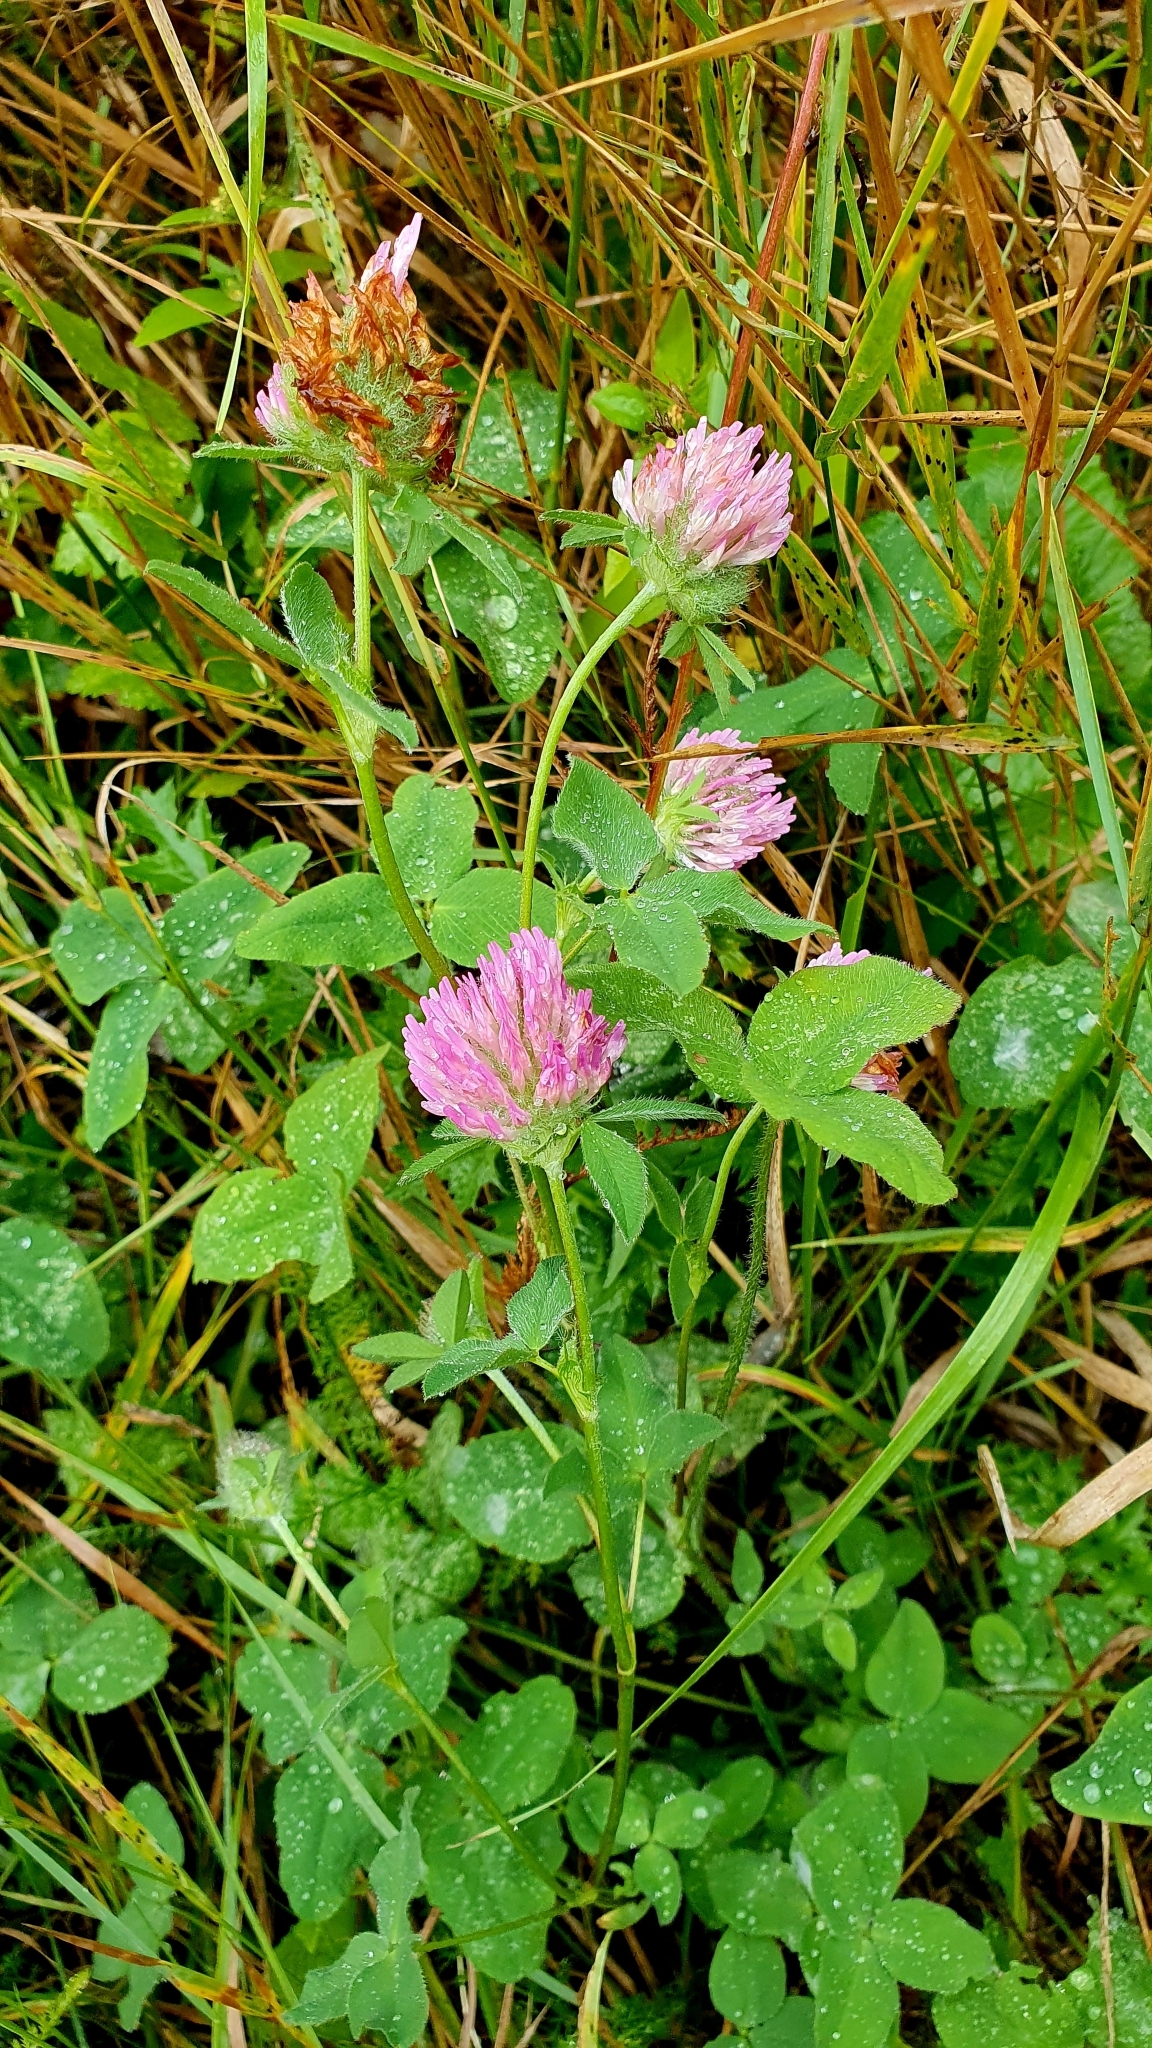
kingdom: Plantae
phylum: Tracheophyta
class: Magnoliopsida
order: Fabales
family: Fabaceae
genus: Trifolium
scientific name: Trifolium pratense
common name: Red clover
